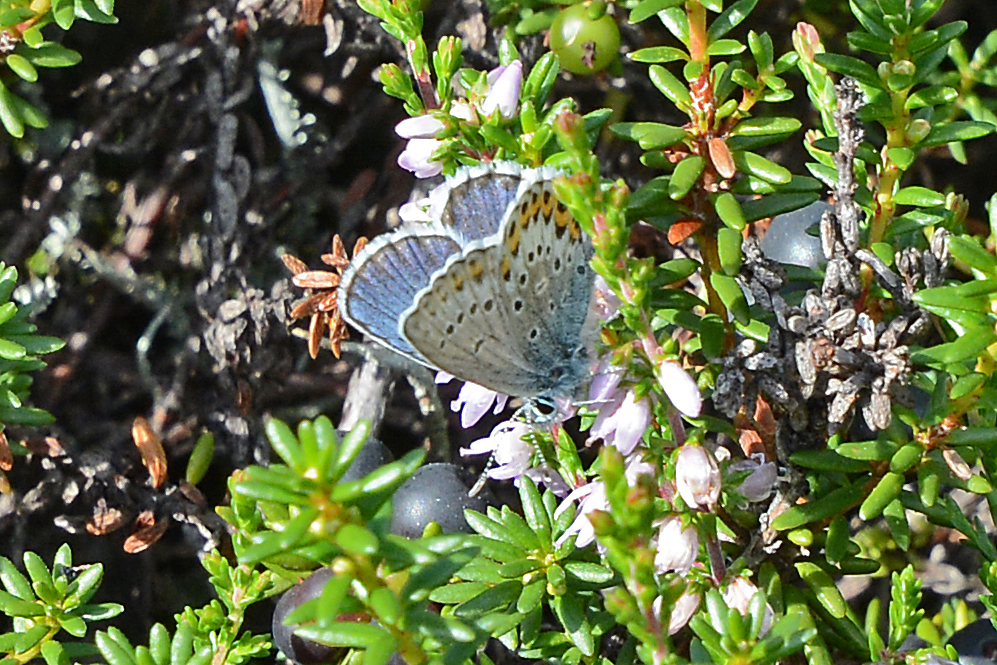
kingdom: Animalia
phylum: Arthropoda
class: Insecta
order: Lepidoptera
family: Lycaenidae
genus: Lycaeides
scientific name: Lycaeides idas
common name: Northern blue
